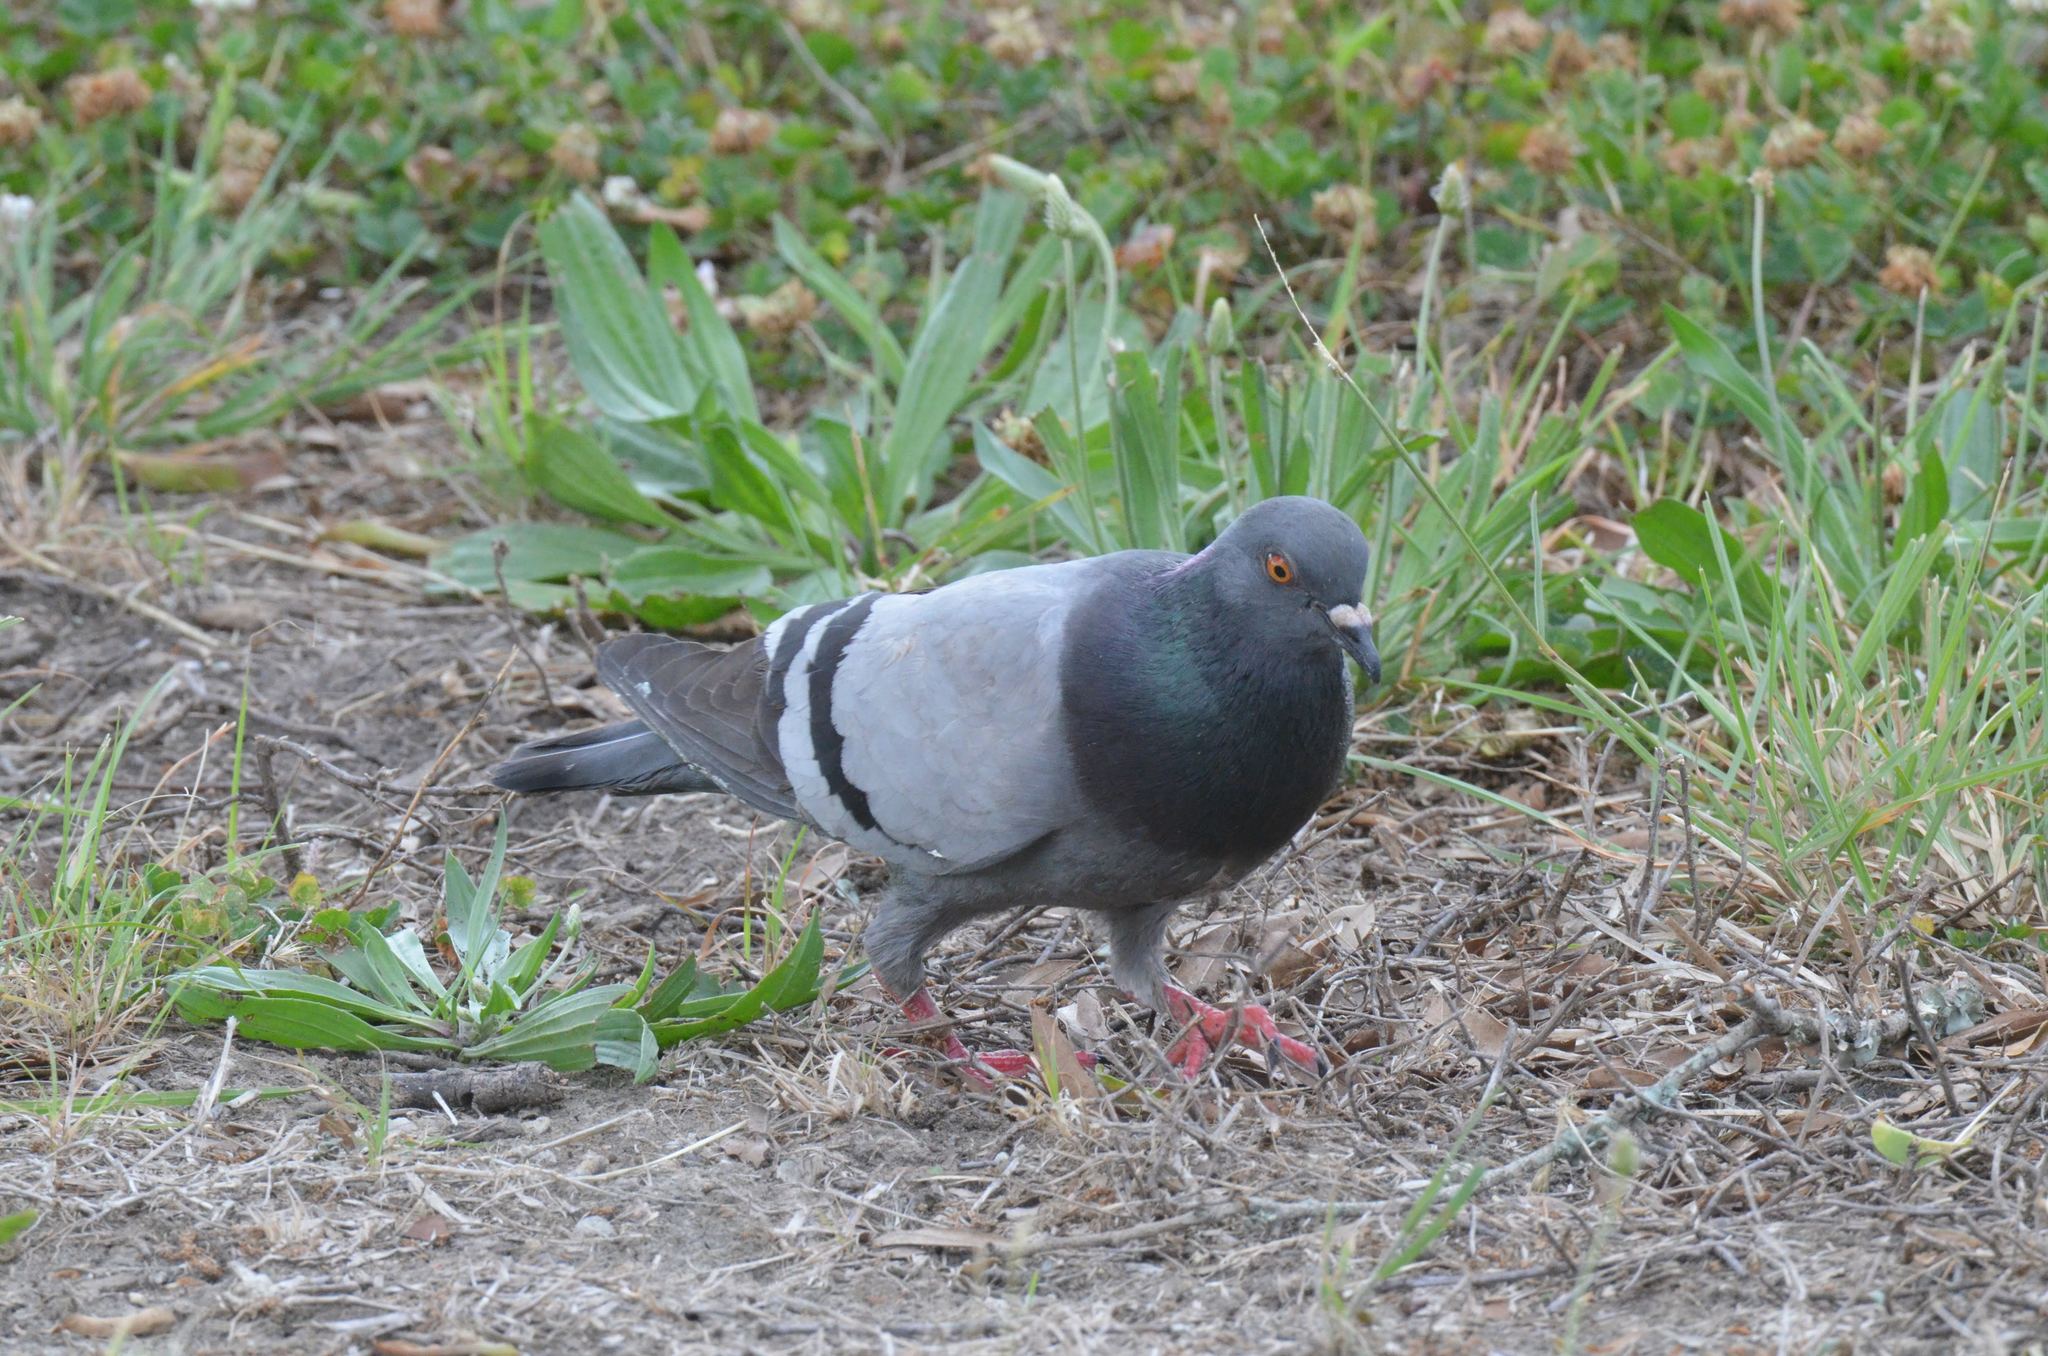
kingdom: Animalia
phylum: Chordata
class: Aves
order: Columbiformes
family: Columbidae
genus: Columba
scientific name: Columba livia
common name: Rock pigeon
